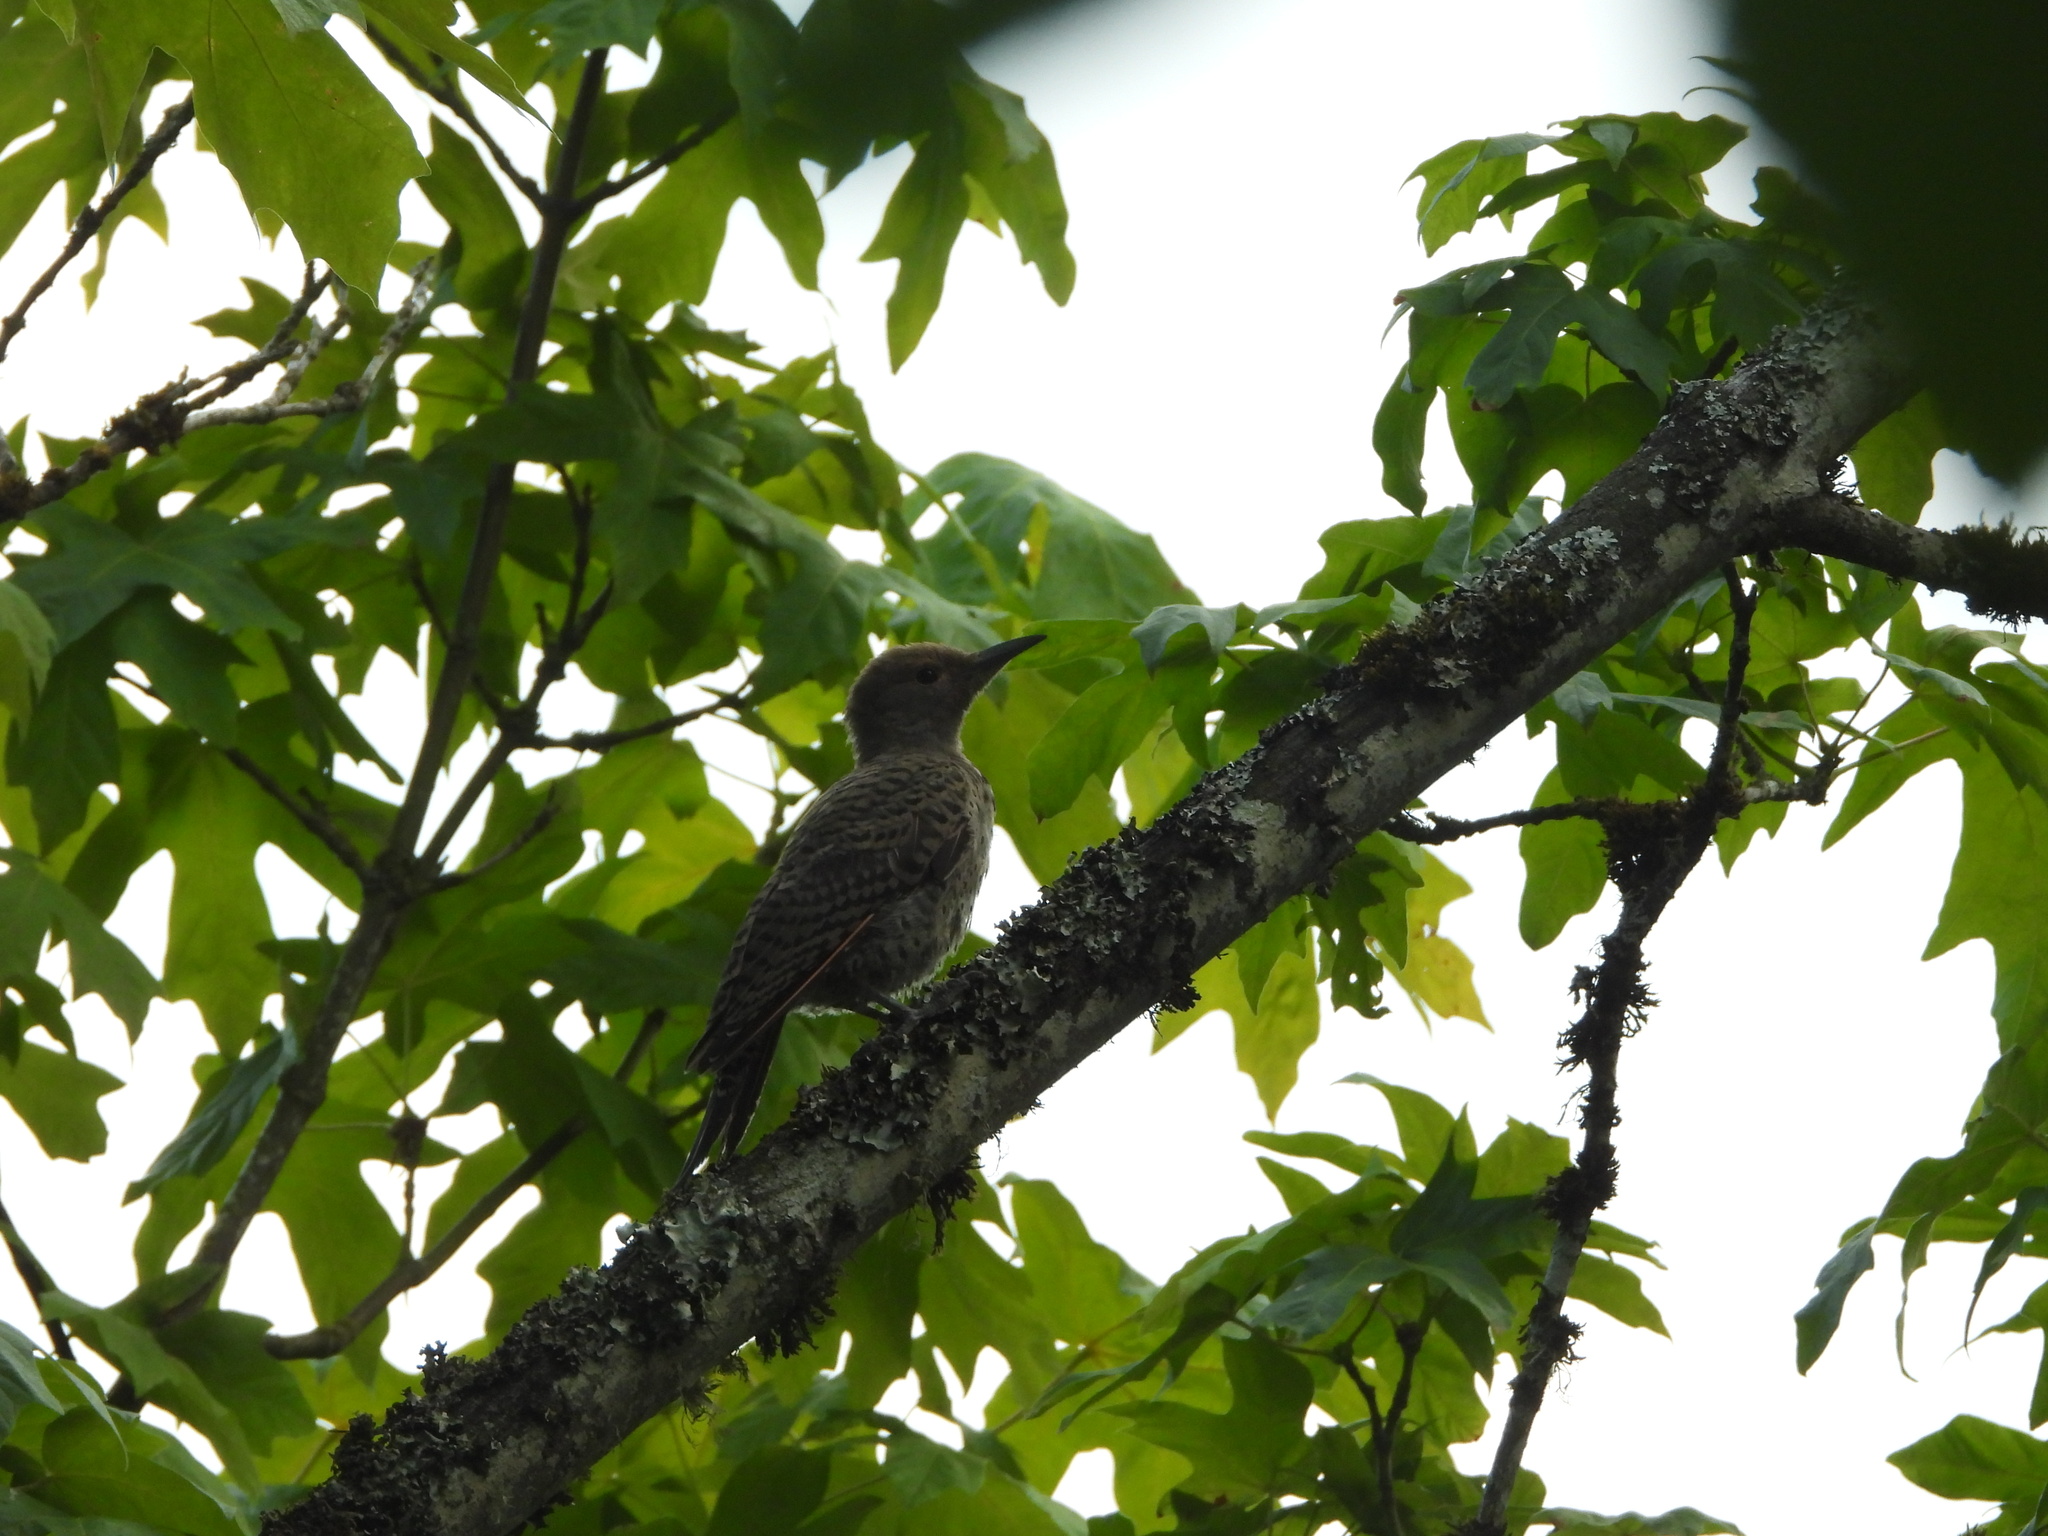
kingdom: Animalia
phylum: Chordata
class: Aves
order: Piciformes
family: Picidae
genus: Colaptes
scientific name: Colaptes auratus
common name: Northern flicker
